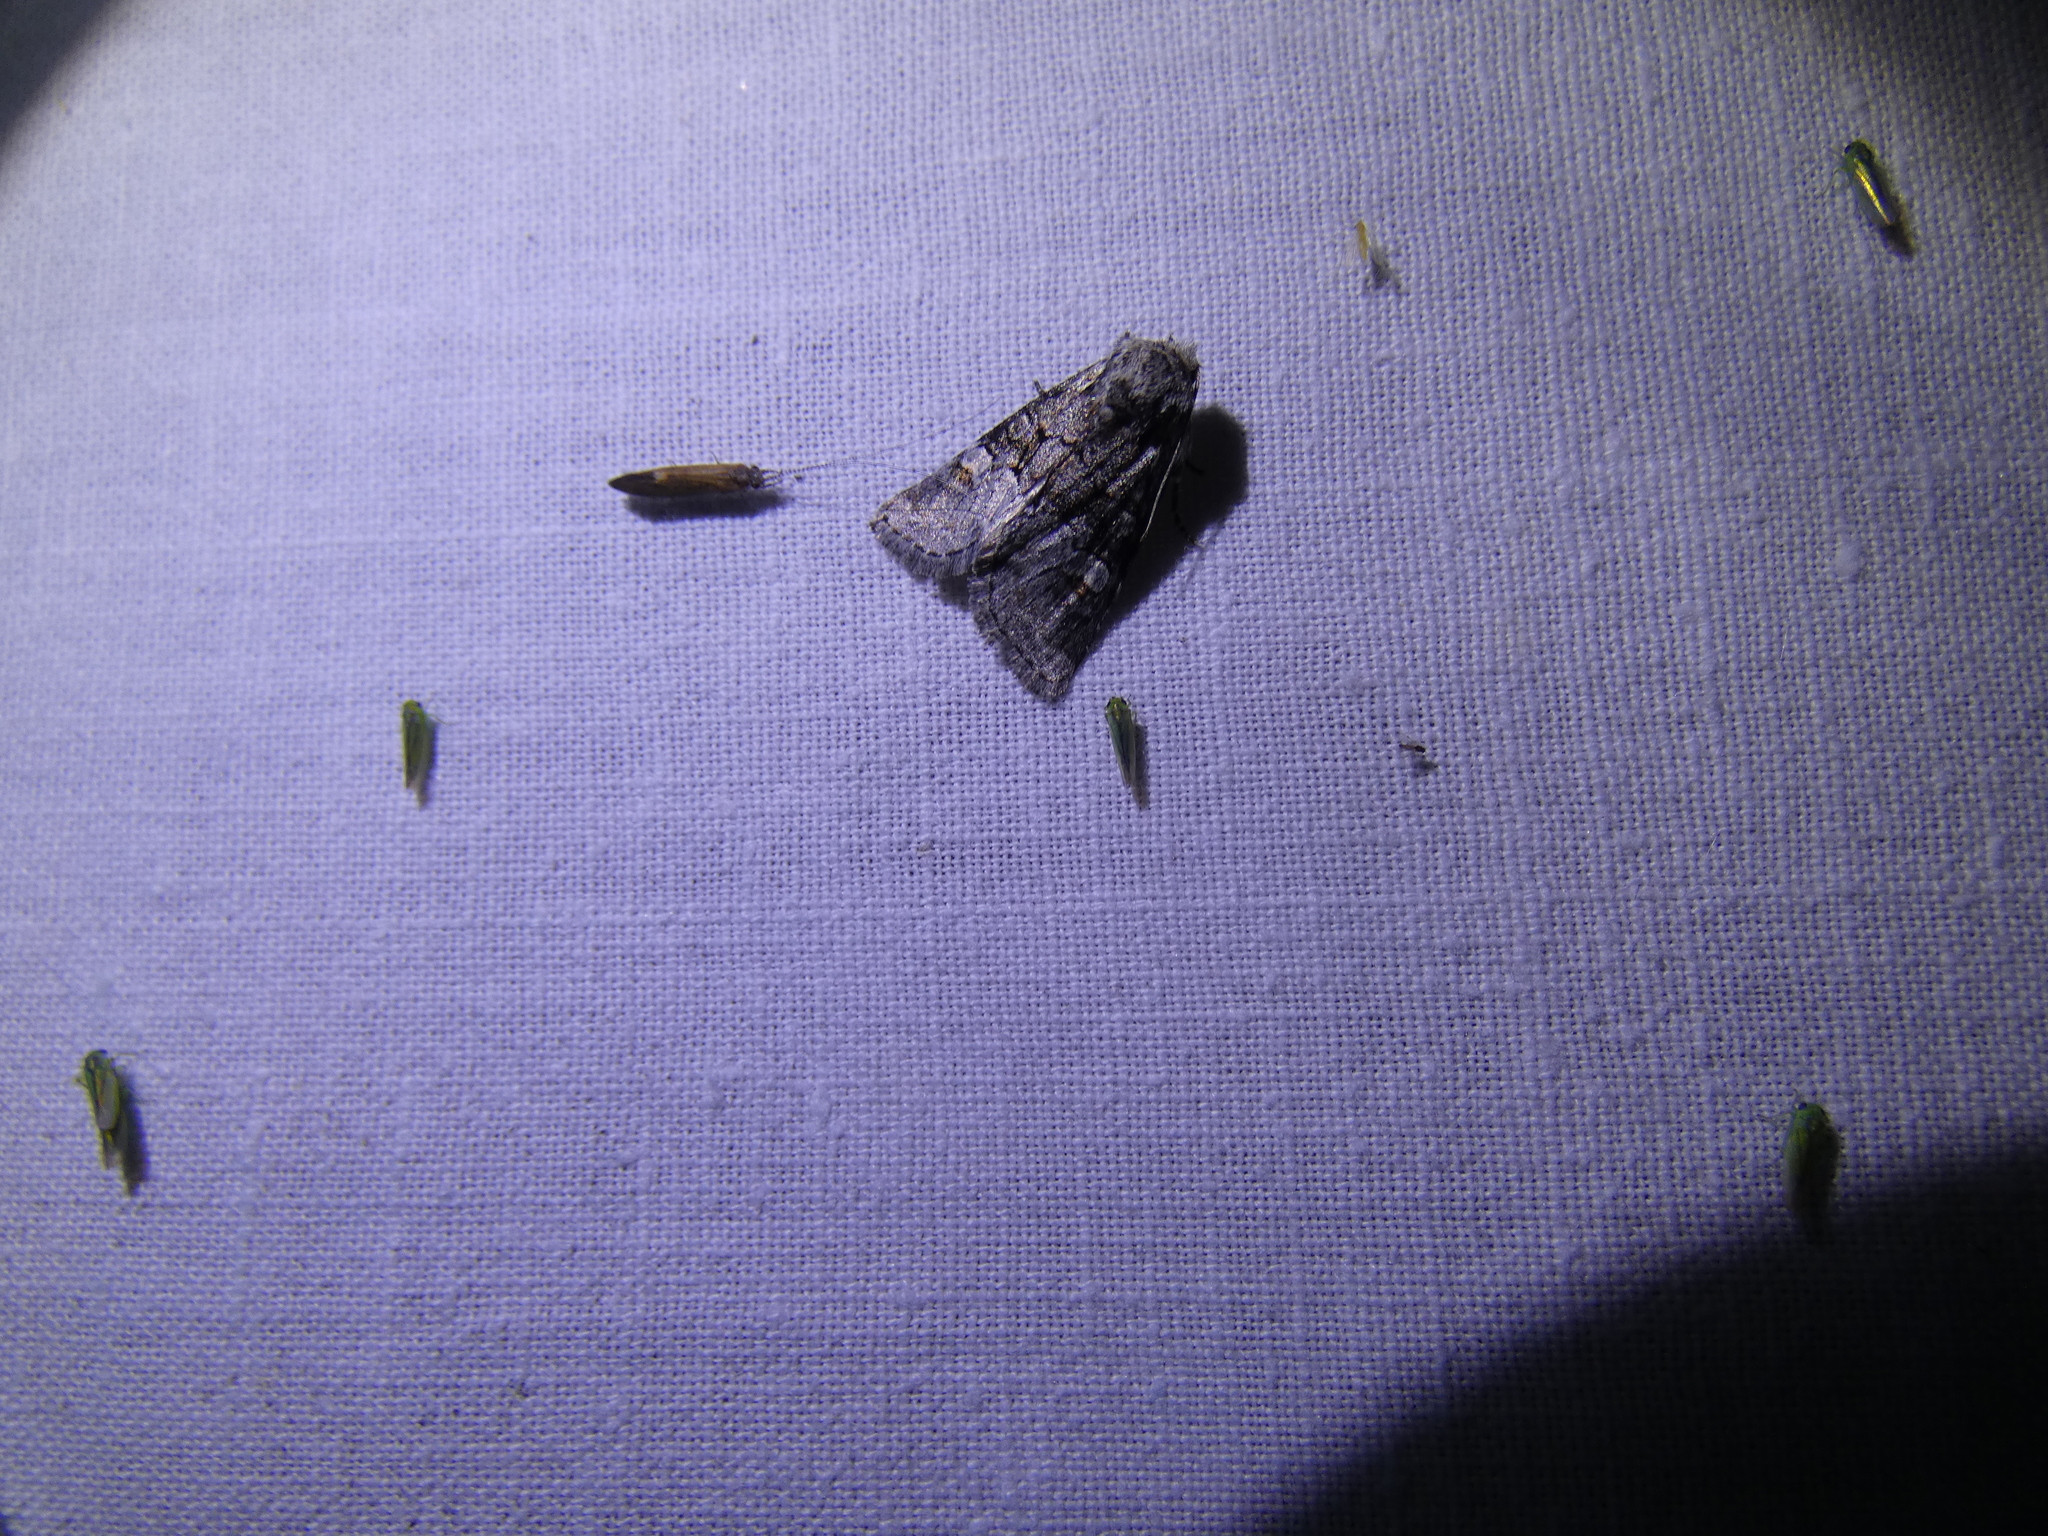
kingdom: Animalia
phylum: Arthropoda
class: Insecta
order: Lepidoptera
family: Noctuidae
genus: Brachylomia
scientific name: Brachylomia viminalis
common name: Minor shoulder-knot
